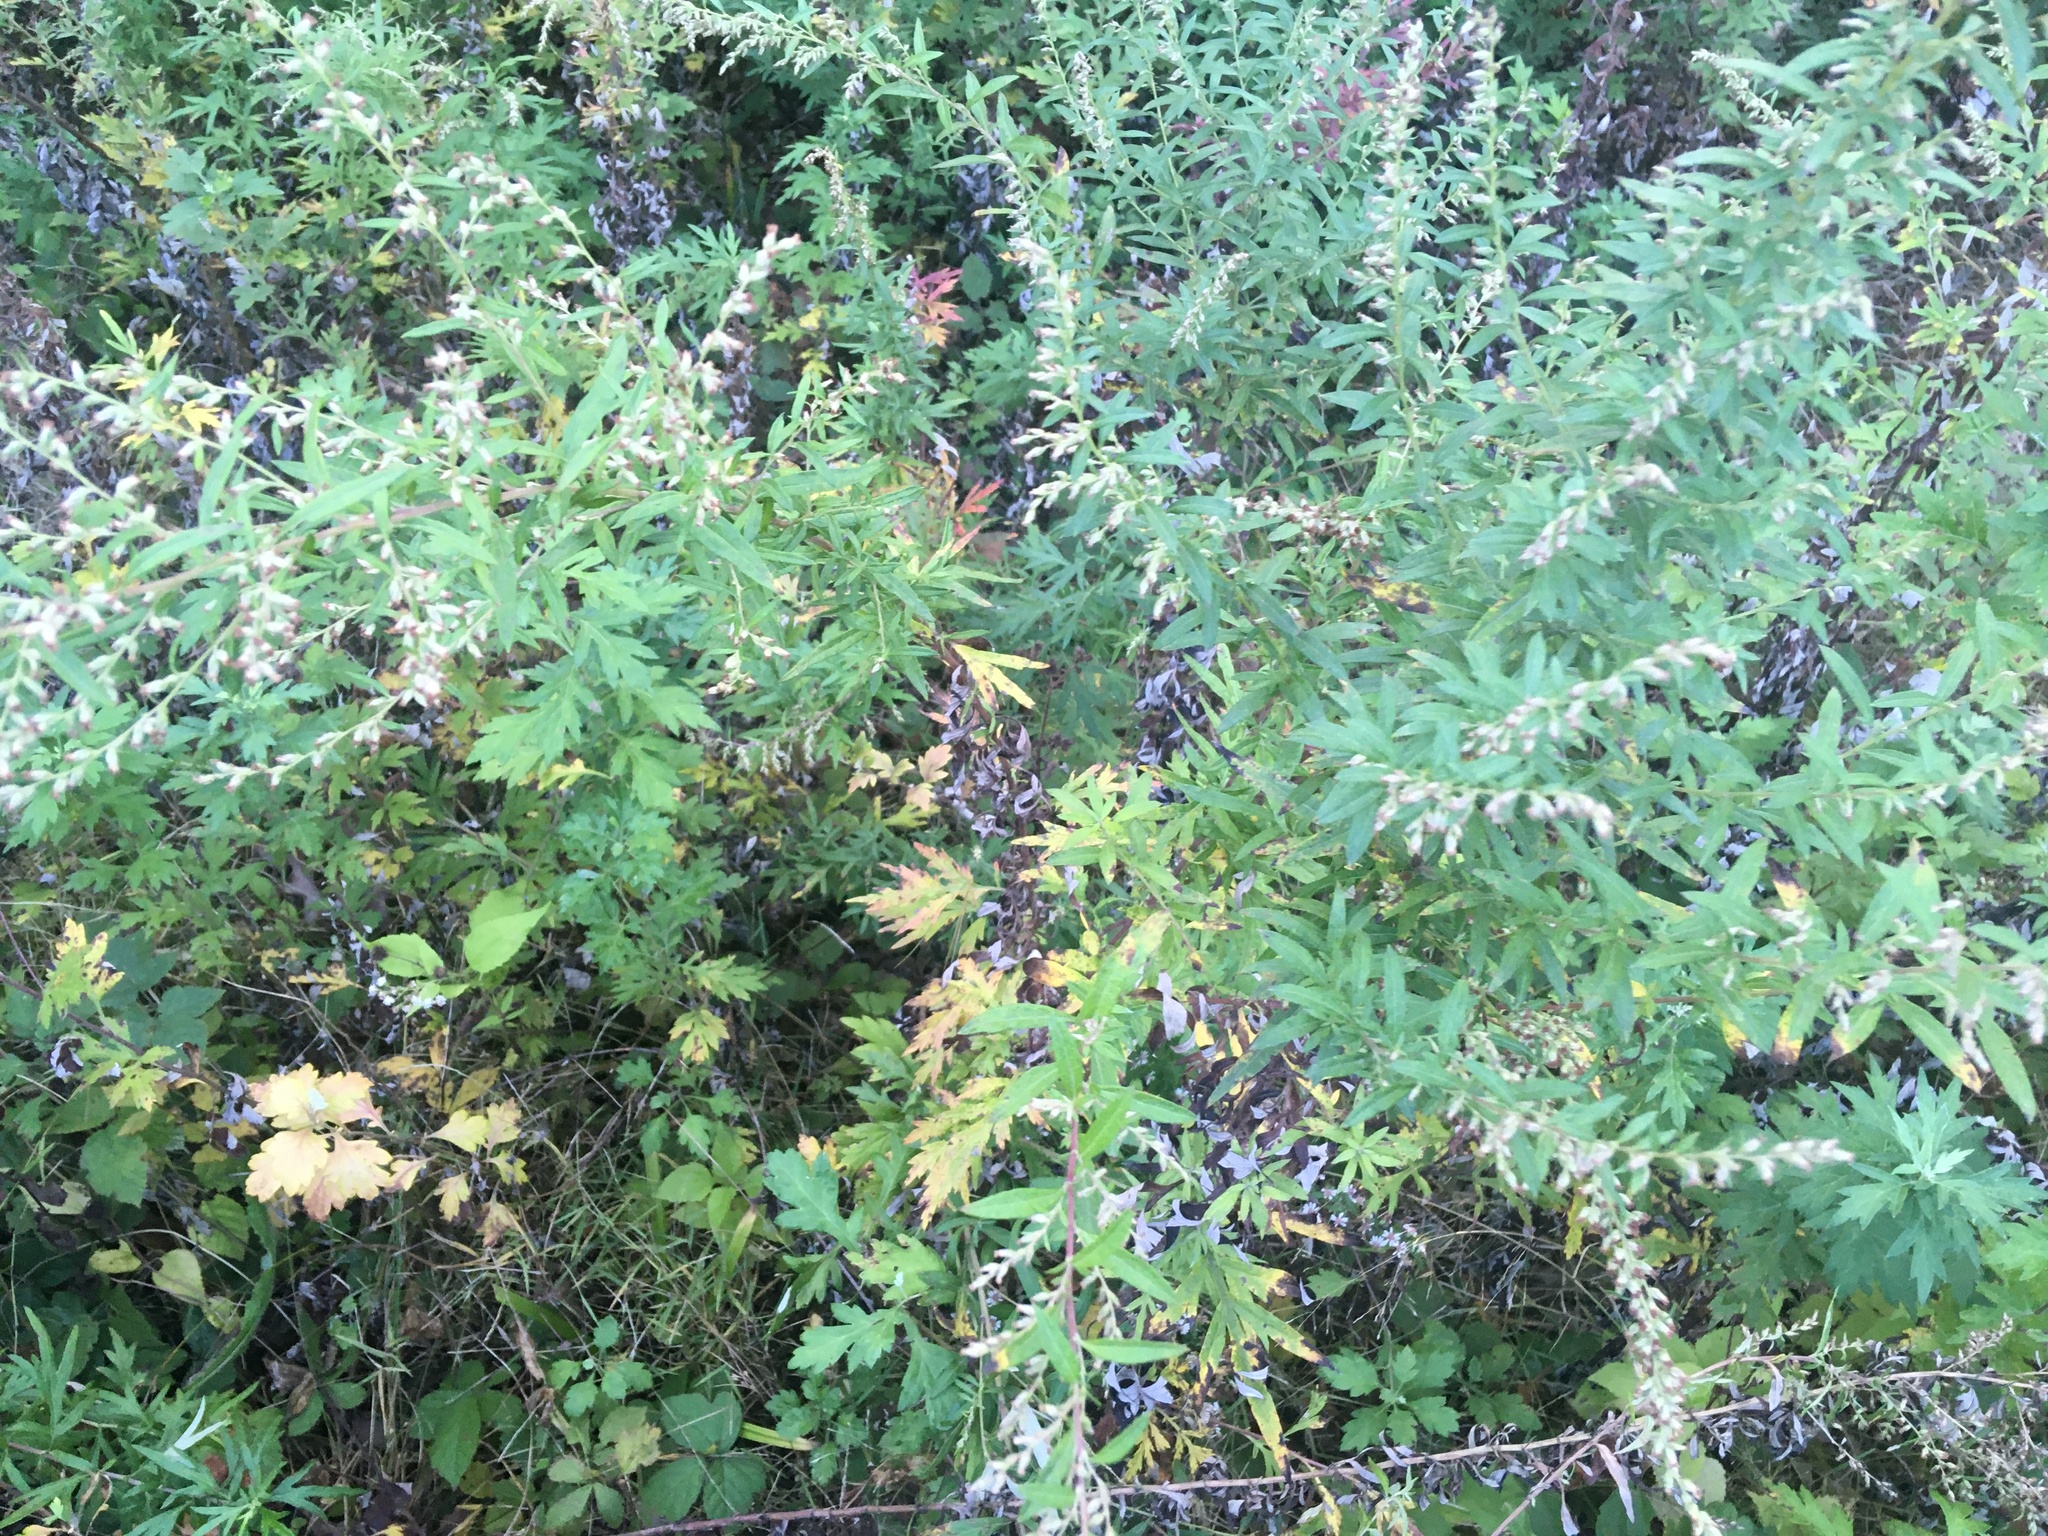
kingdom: Plantae
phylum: Tracheophyta
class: Magnoliopsida
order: Asterales
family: Asteraceae
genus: Artemisia
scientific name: Artemisia vulgaris
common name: Mugwort
